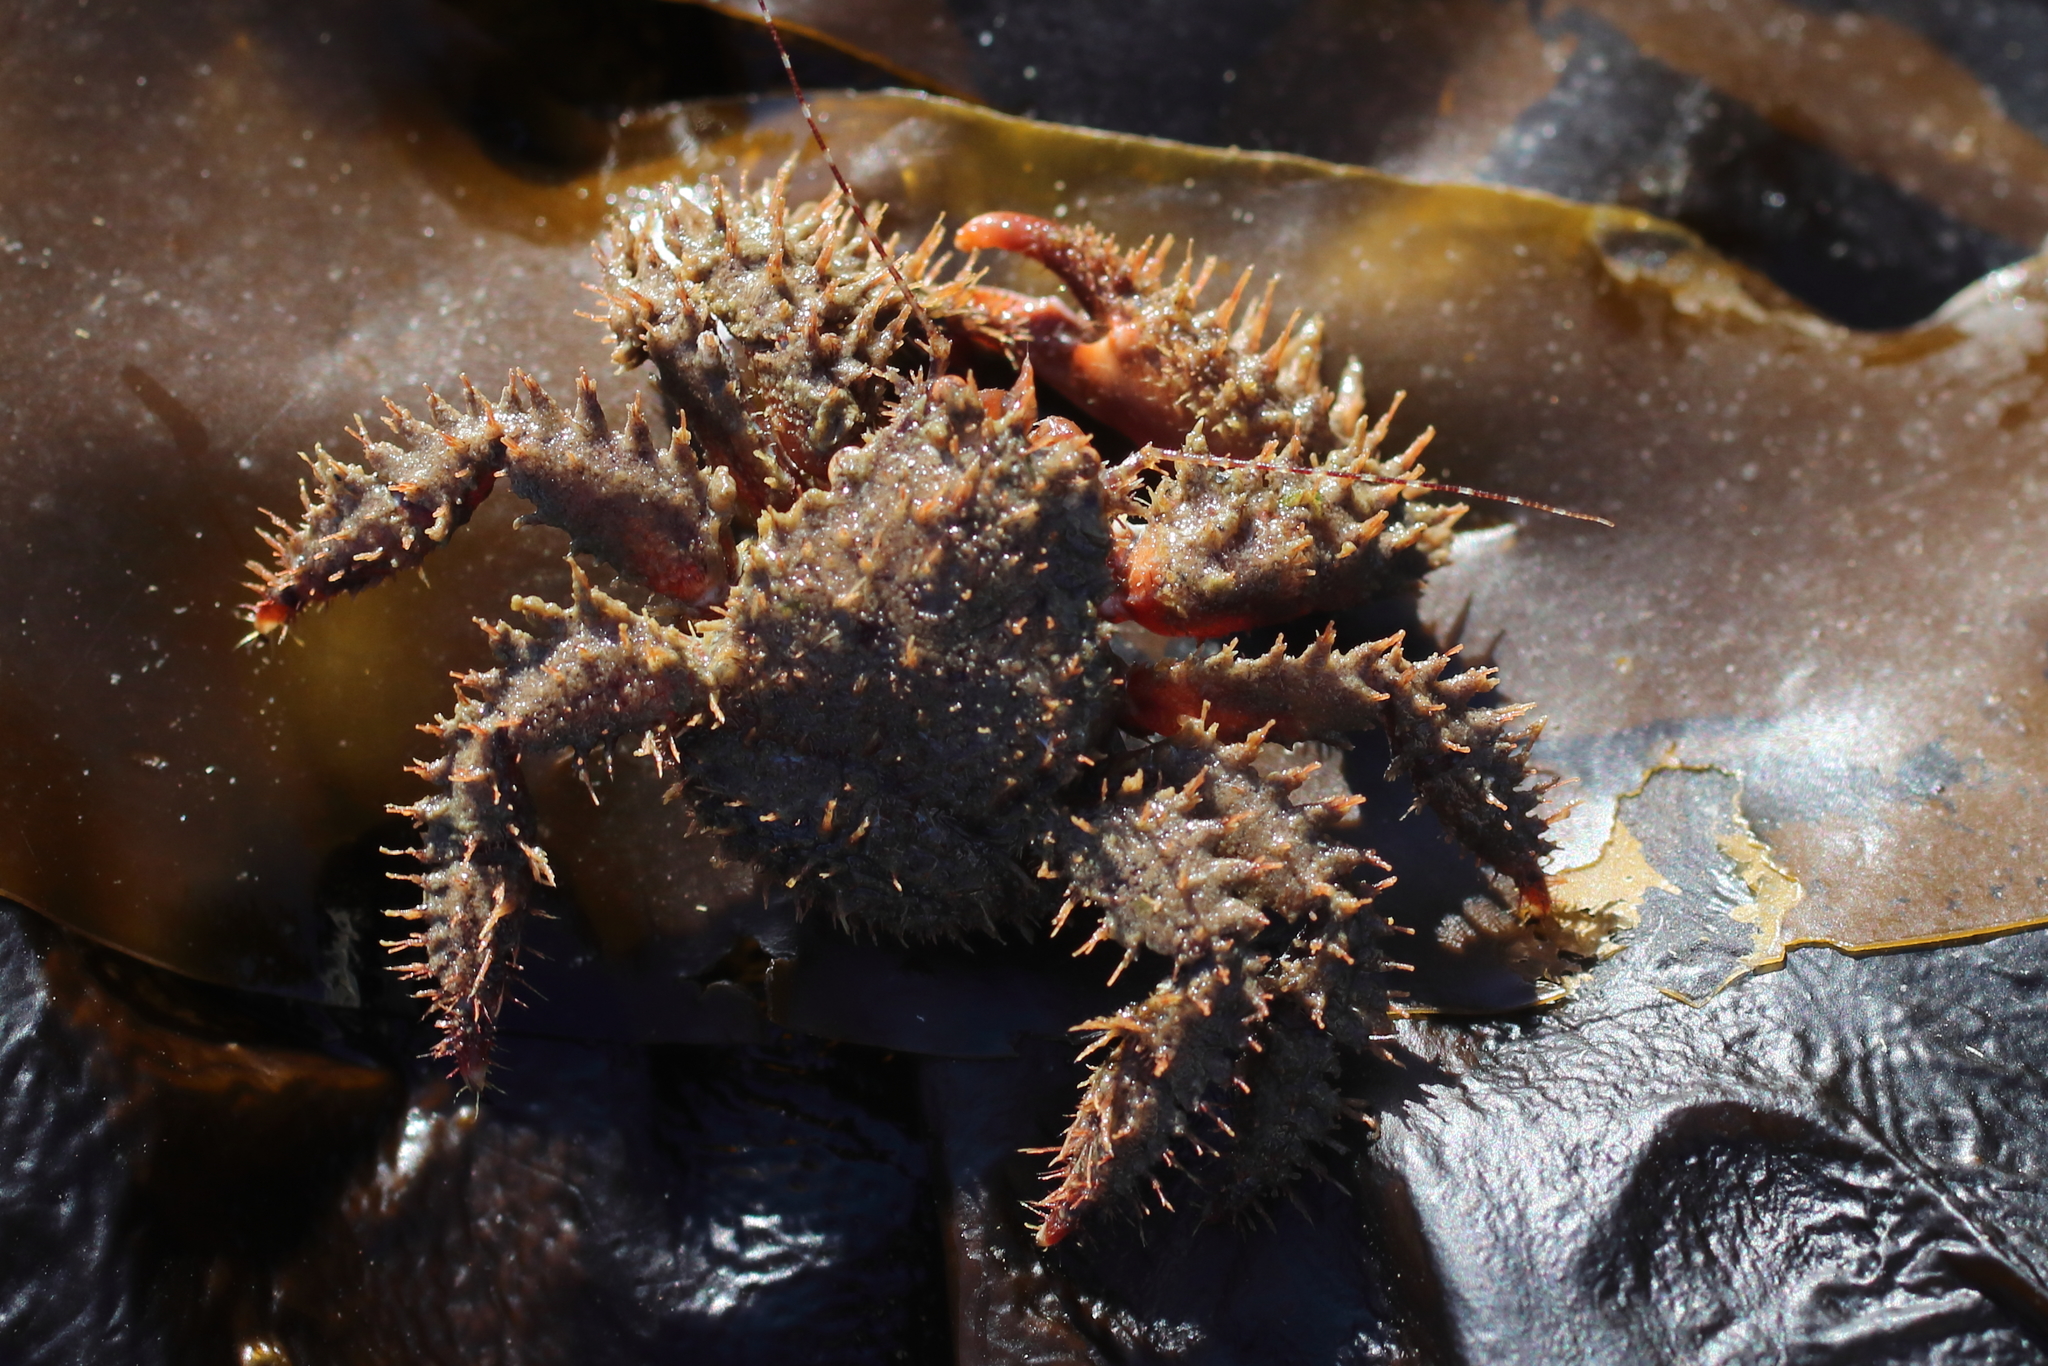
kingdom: Animalia
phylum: Arthropoda
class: Malacostraca
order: Decapoda
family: Hapalogastridae
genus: Hapalogaster
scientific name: Hapalogaster mertensii
